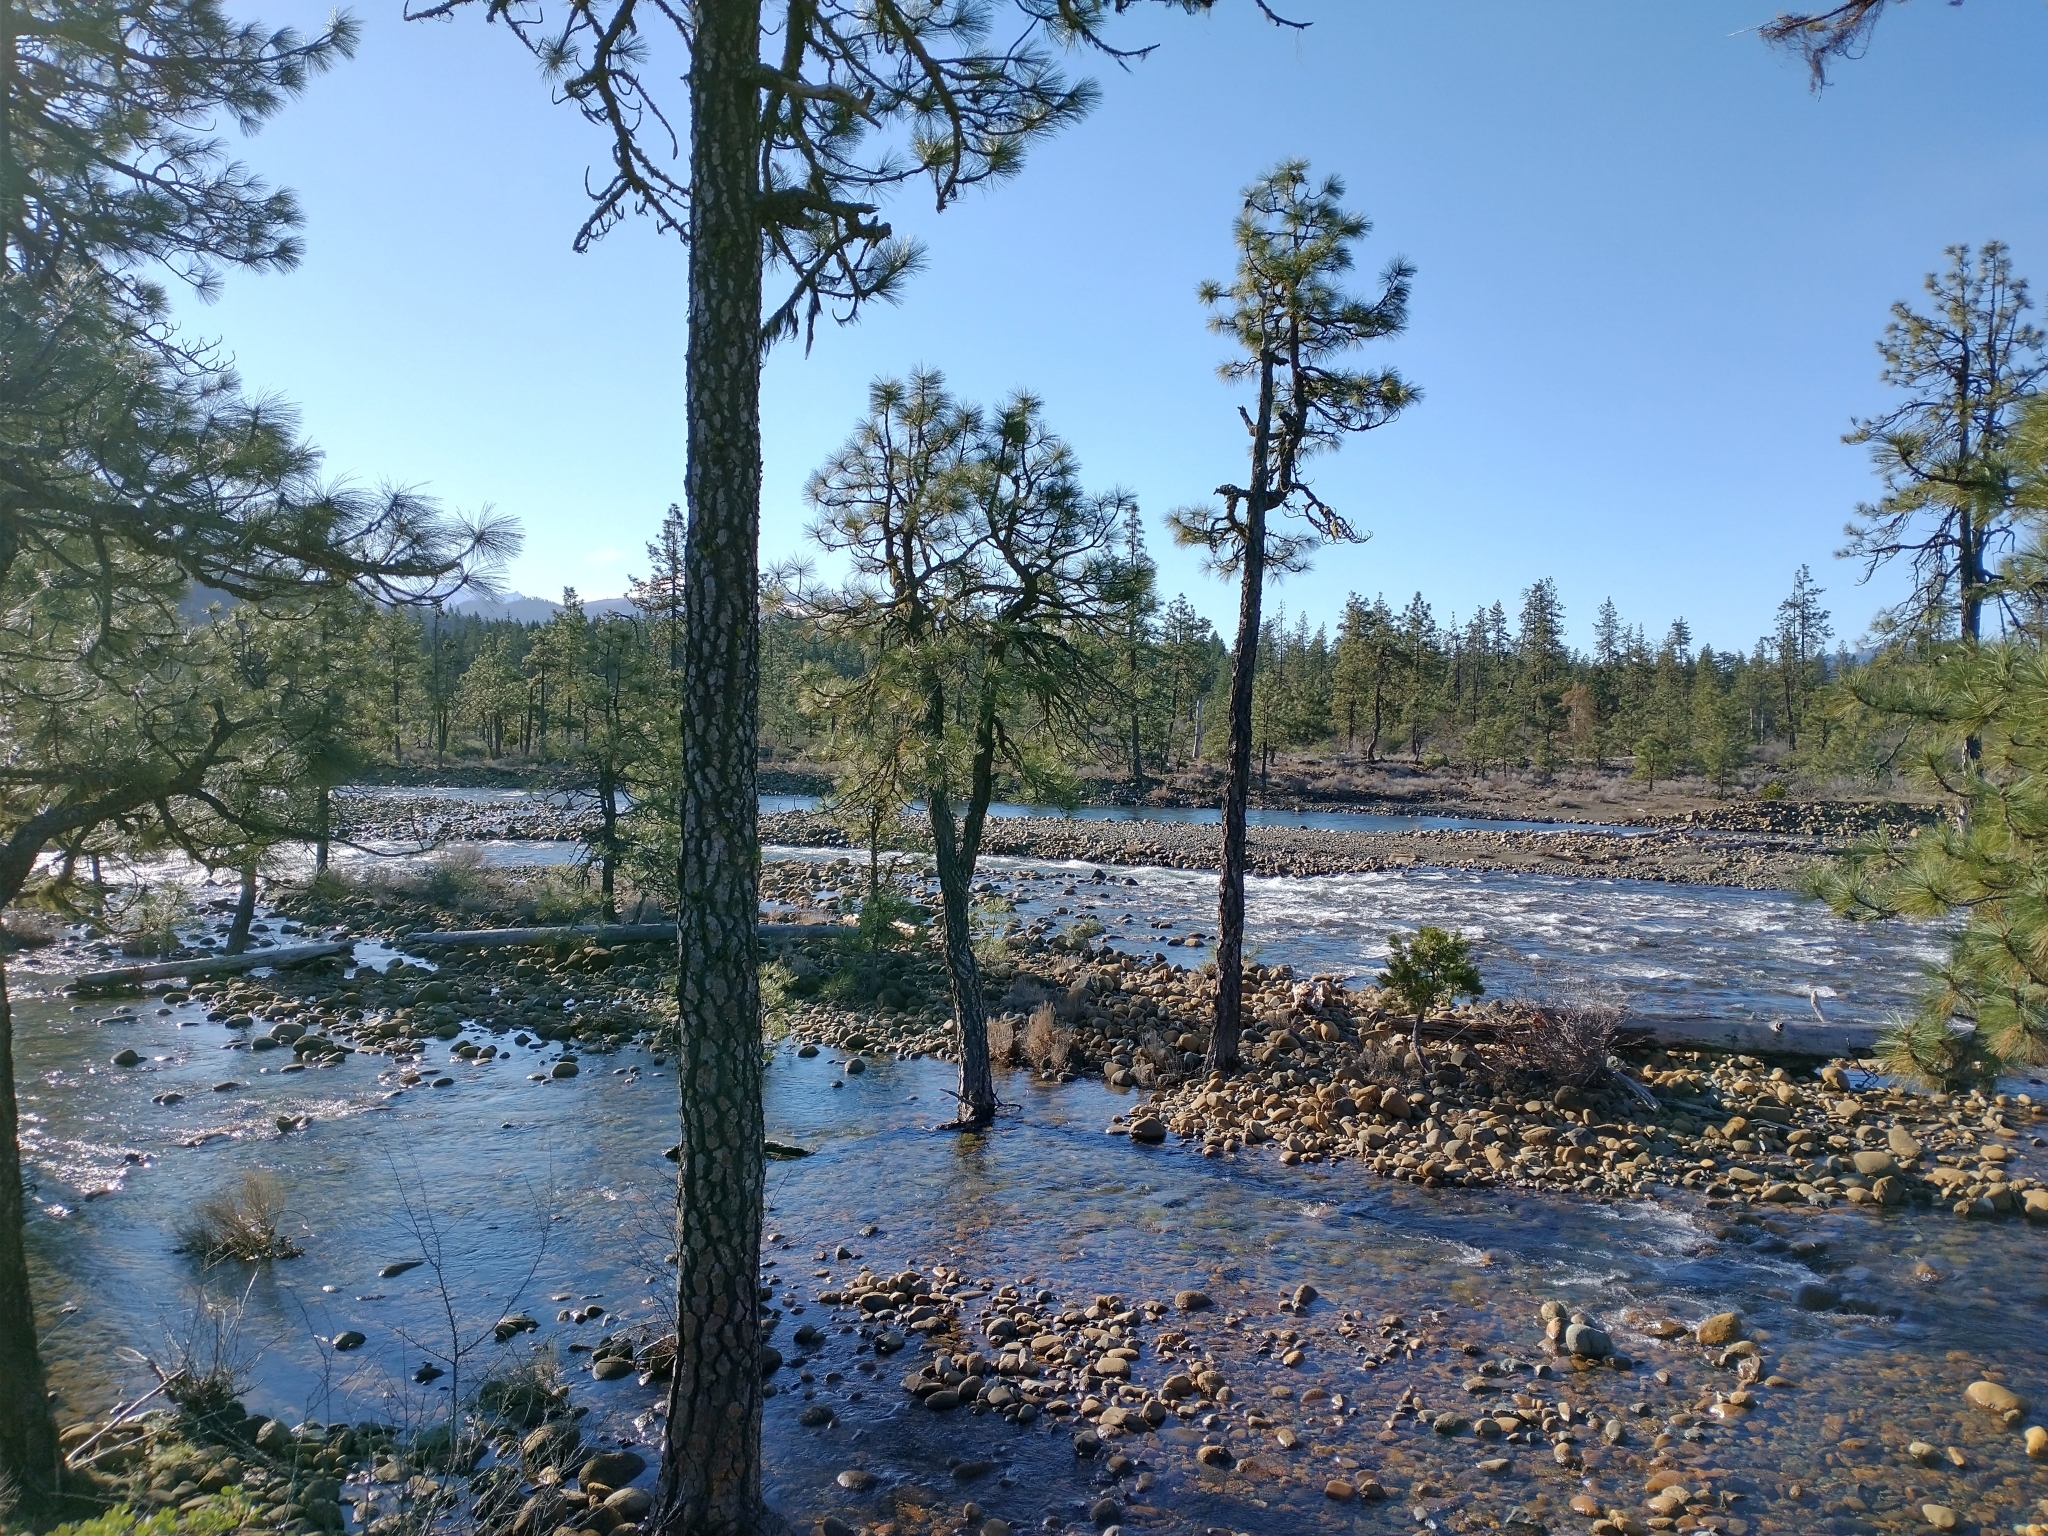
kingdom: Plantae
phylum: Tracheophyta
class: Pinopsida
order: Pinales
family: Pinaceae
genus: Pinus
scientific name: Pinus jeffreyi
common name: Jeffrey pine
